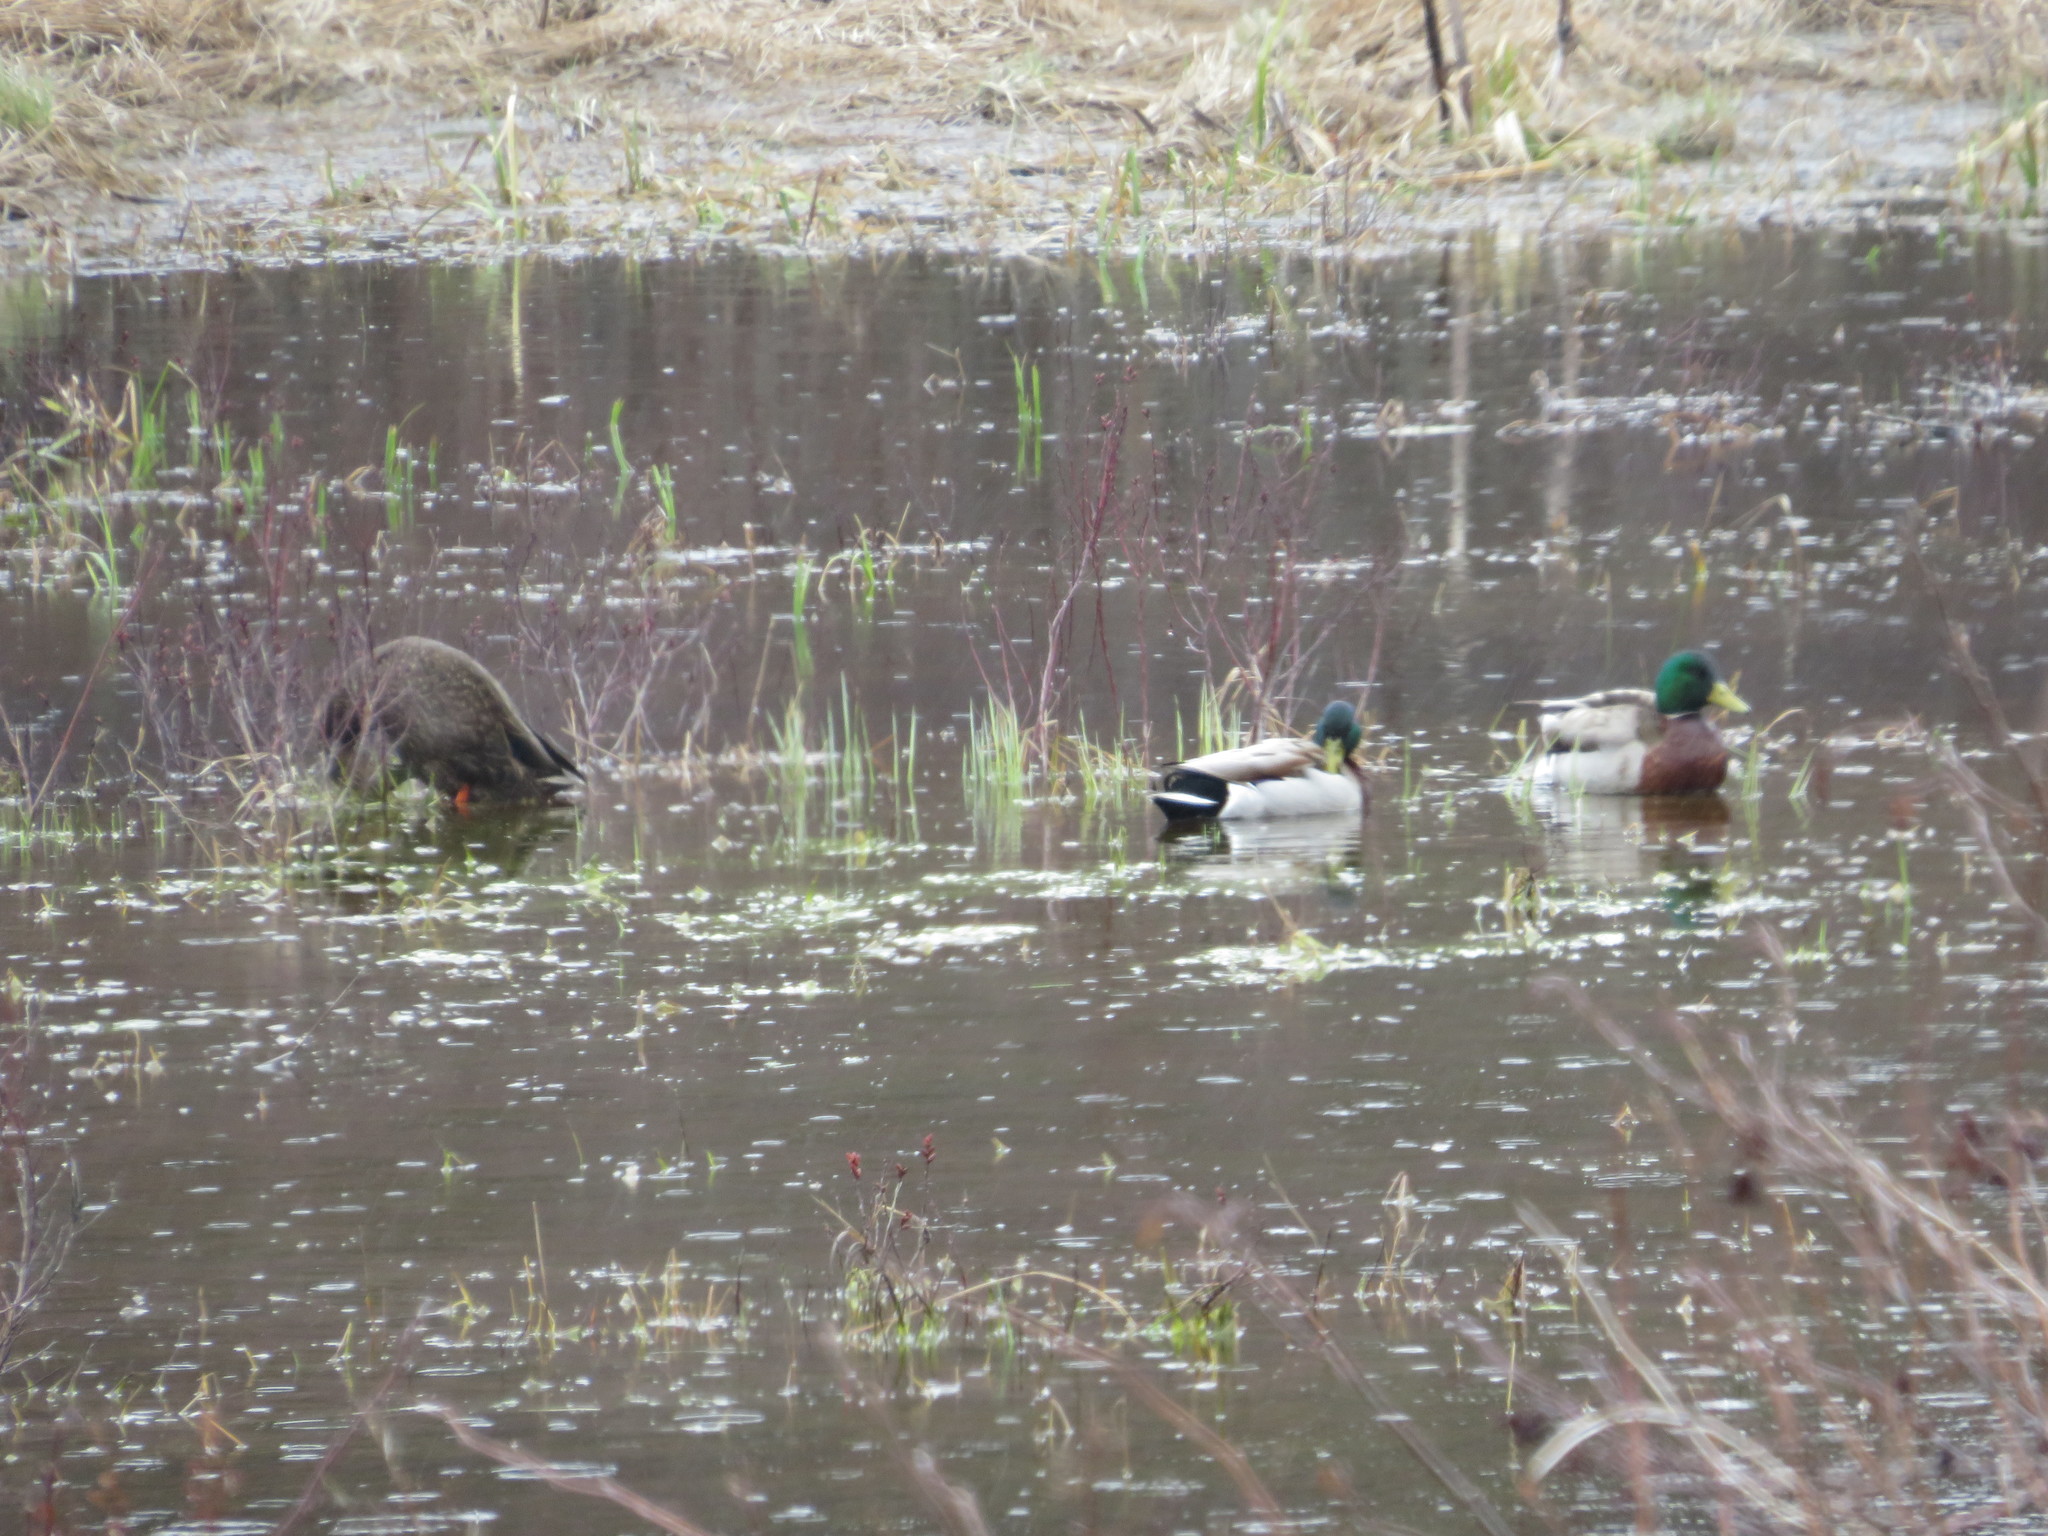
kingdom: Animalia
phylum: Chordata
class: Aves
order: Anseriformes
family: Anatidae
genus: Anas
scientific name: Anas platyrhynchos
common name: Mallard
